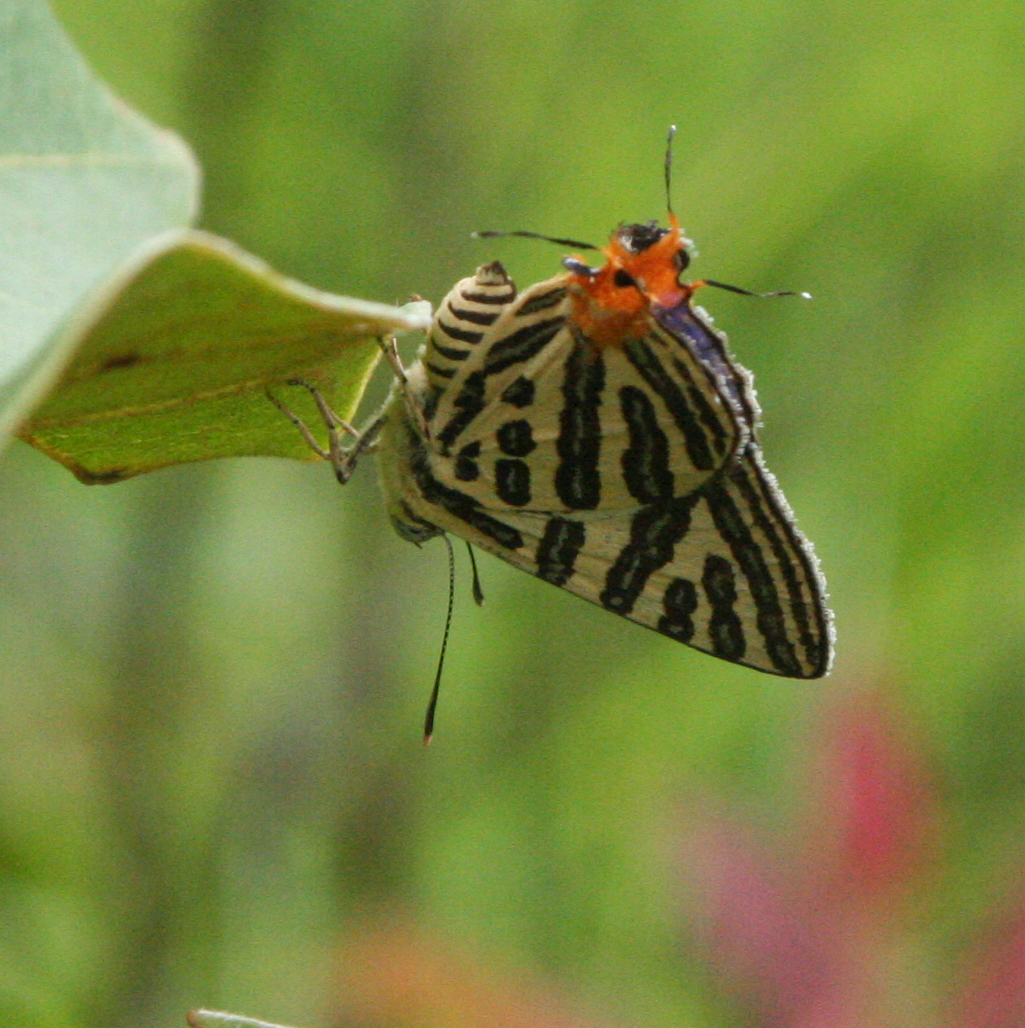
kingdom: Animalia
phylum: Arthropoda
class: Insecta
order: Lepidoptera
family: Lycaenidae
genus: Cigaritis
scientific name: Cigaritis syama
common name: Club silverline
